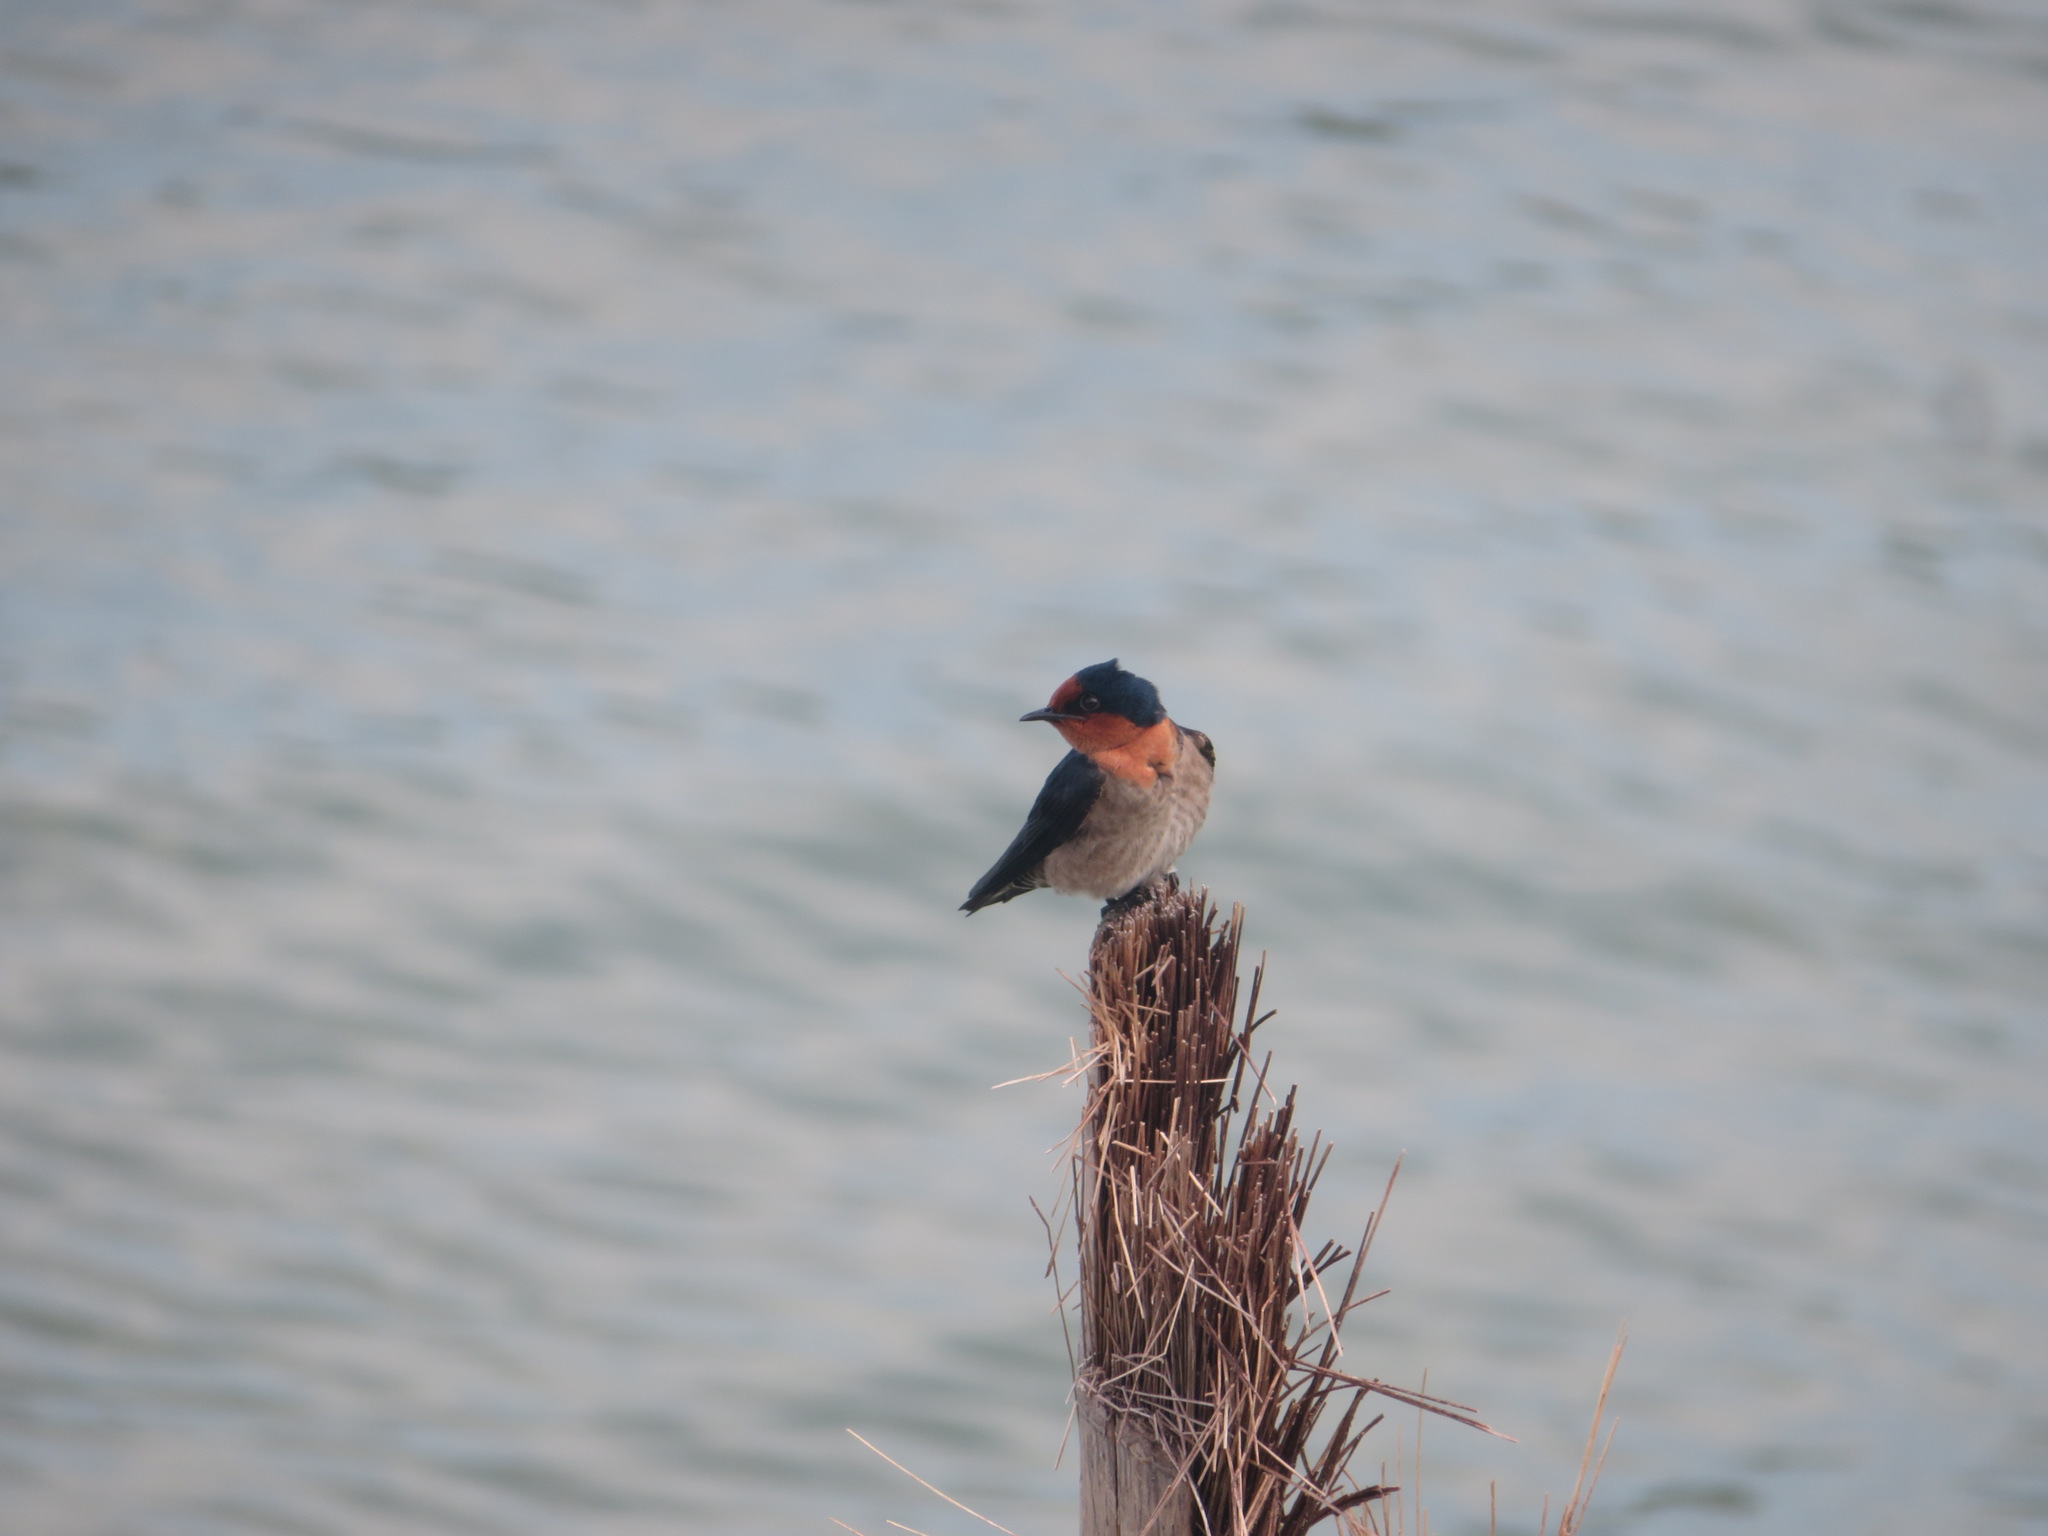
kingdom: Animalia
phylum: Chordata
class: Aves
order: Passeriformes
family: Hirundinidae
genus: Hirundo
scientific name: Hirundo tahitica
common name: Pacific swallow
